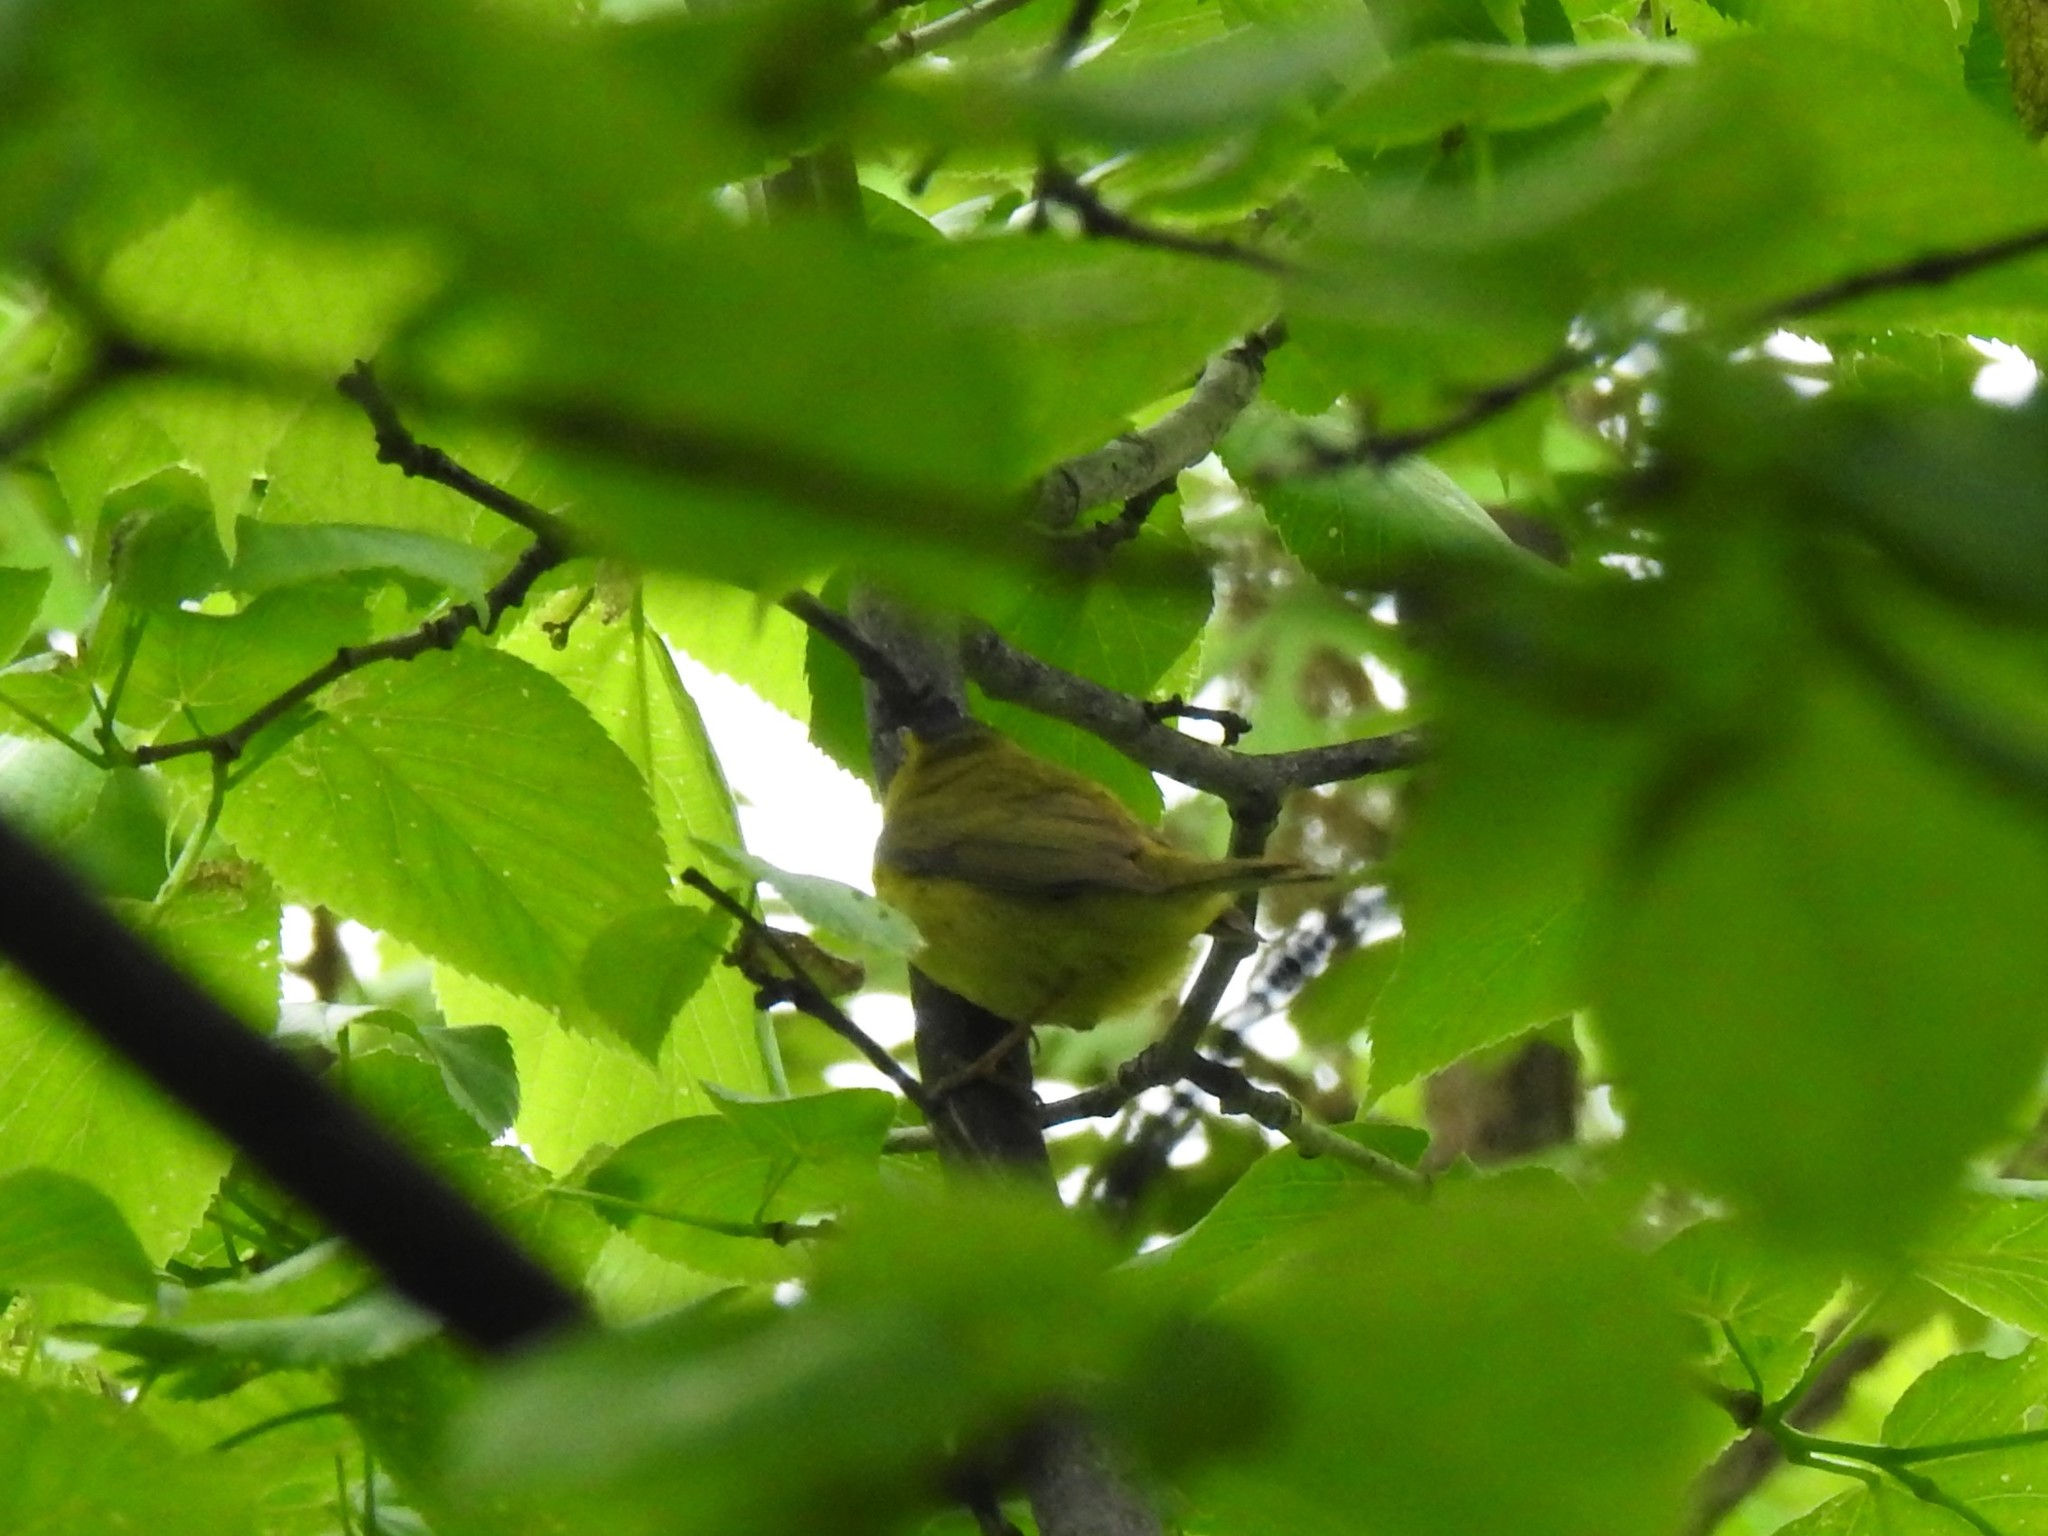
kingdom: Animalia
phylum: Chordata
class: Aves
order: Passeriformes
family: Parulidae
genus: Cardellina
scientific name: Cardellina pusilla
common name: Wilson's warbler
